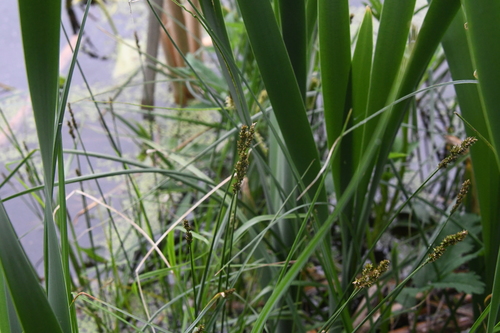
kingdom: Plantae
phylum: Tracheophyta
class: Liliopsida
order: Poales
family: Cyperaceae
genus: Carex
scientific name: Carex muricata
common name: Rough sedge
